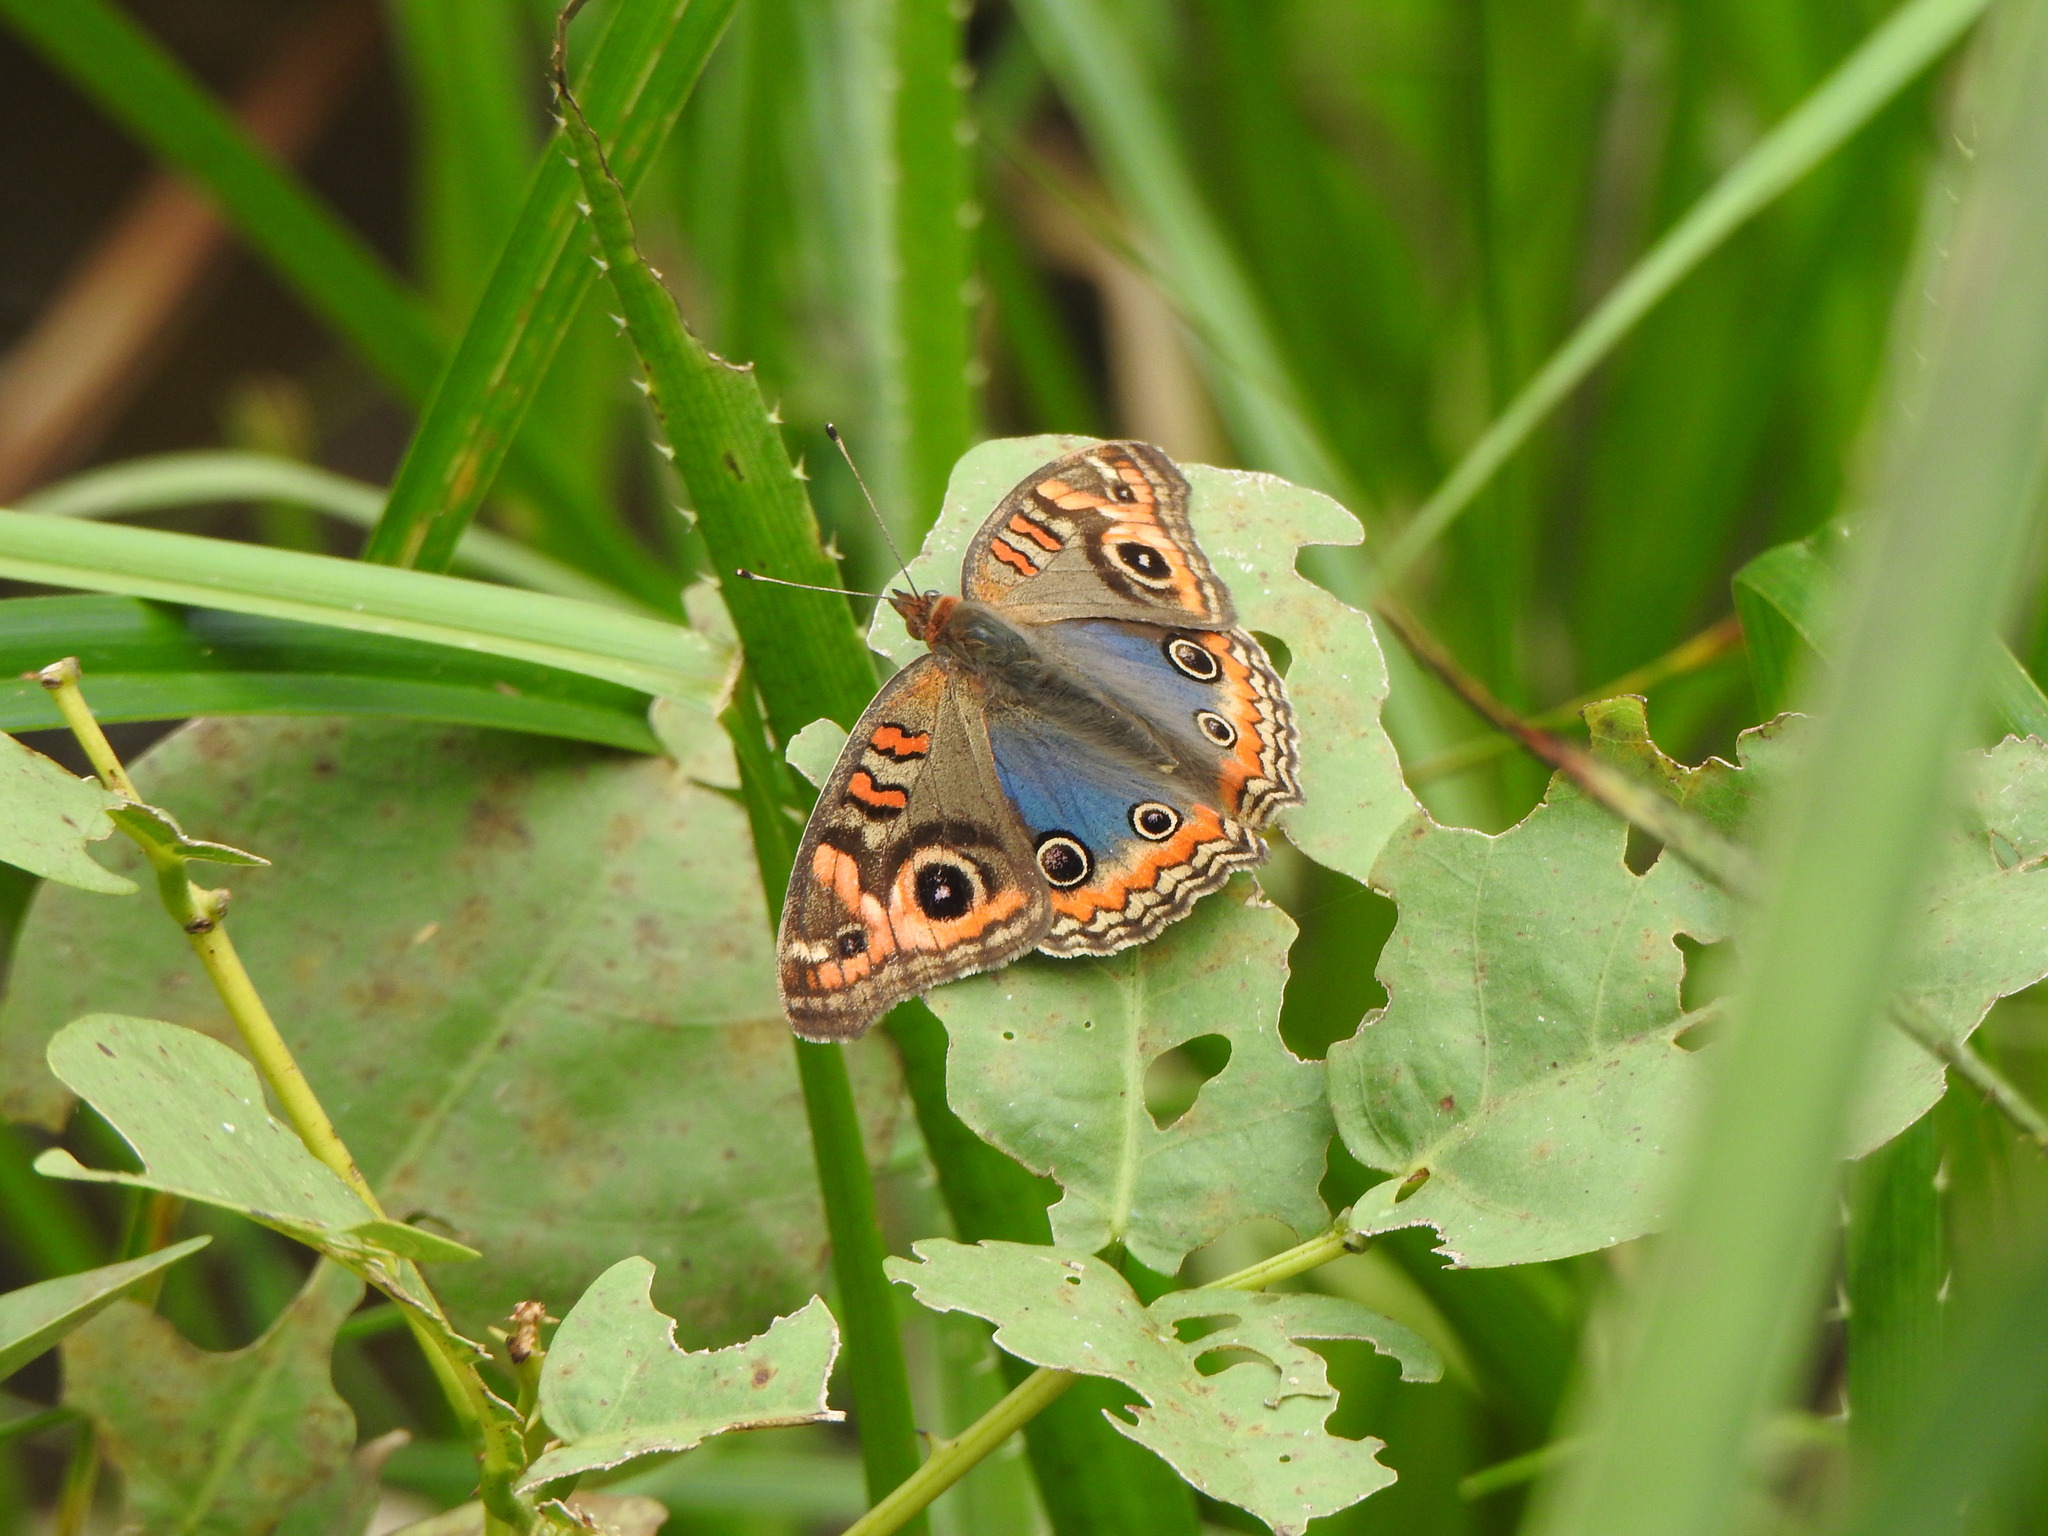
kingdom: Animalia
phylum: Arthropoda
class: Insecta
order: Lepidoptera
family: Nymphalidae
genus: Junonia
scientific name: Junonia lavinia
